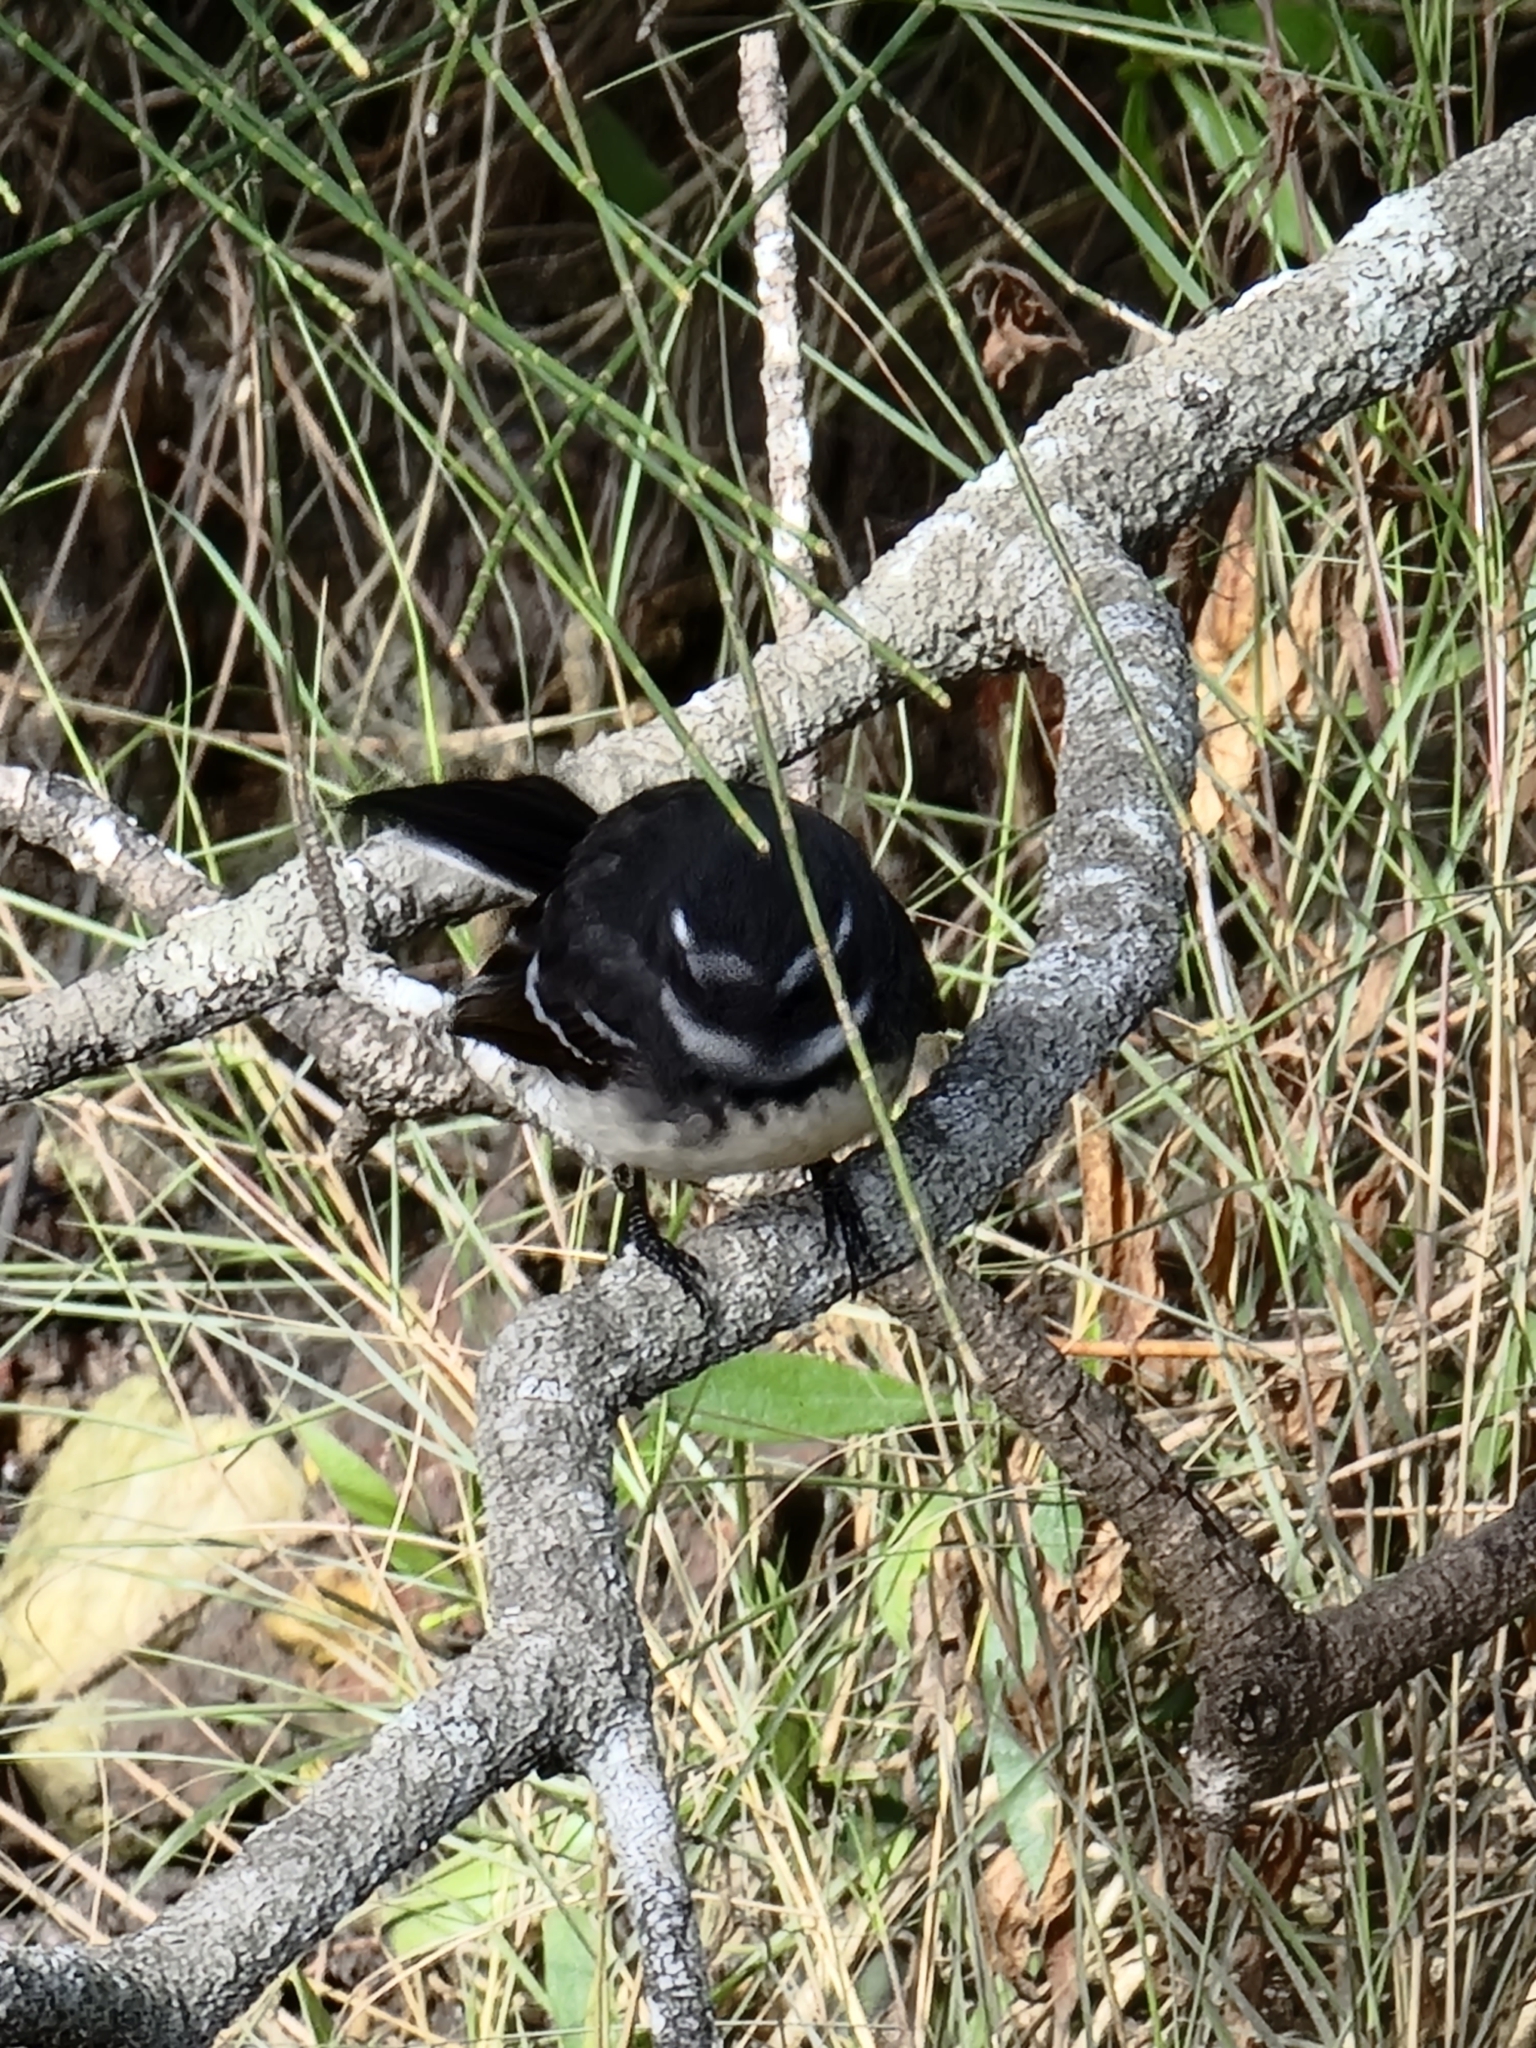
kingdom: Animalia
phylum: Chordata
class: Aves
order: Passeriformes
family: Rhipiduridae
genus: Rhipidura
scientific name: Rhipidura albiscapa
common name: Grey fantail
